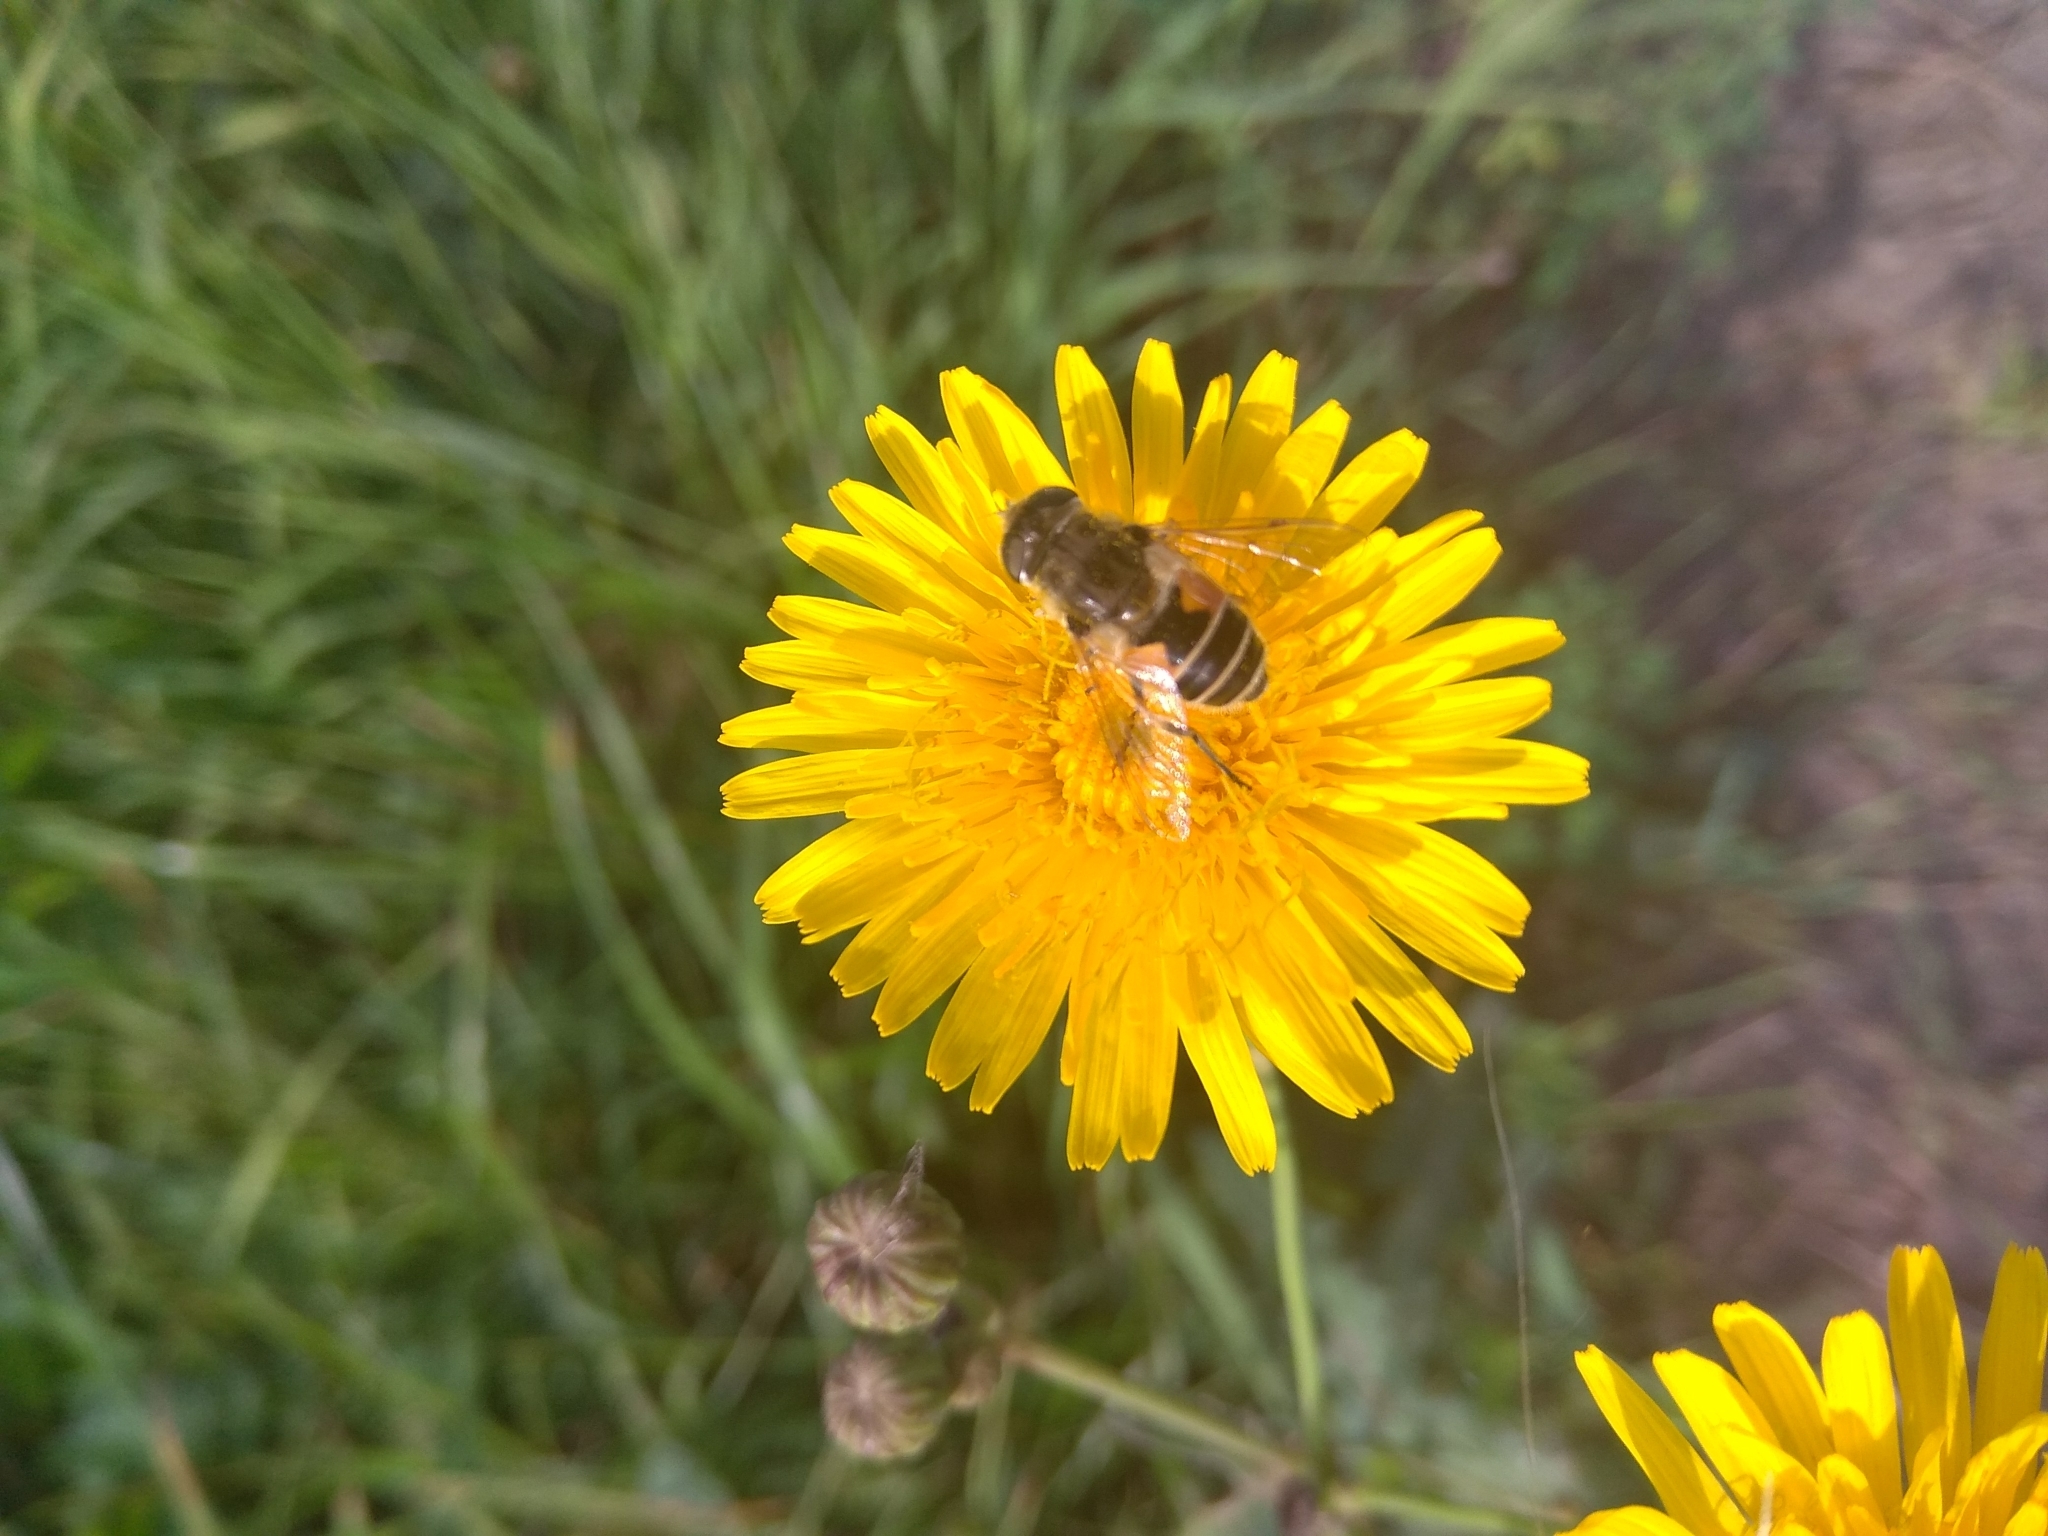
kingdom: Animalia
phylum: Arthropoda
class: Insecta
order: Diptera
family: Syrphidae
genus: Eristalis
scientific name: Eristalis arbustorum
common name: Hover fly
